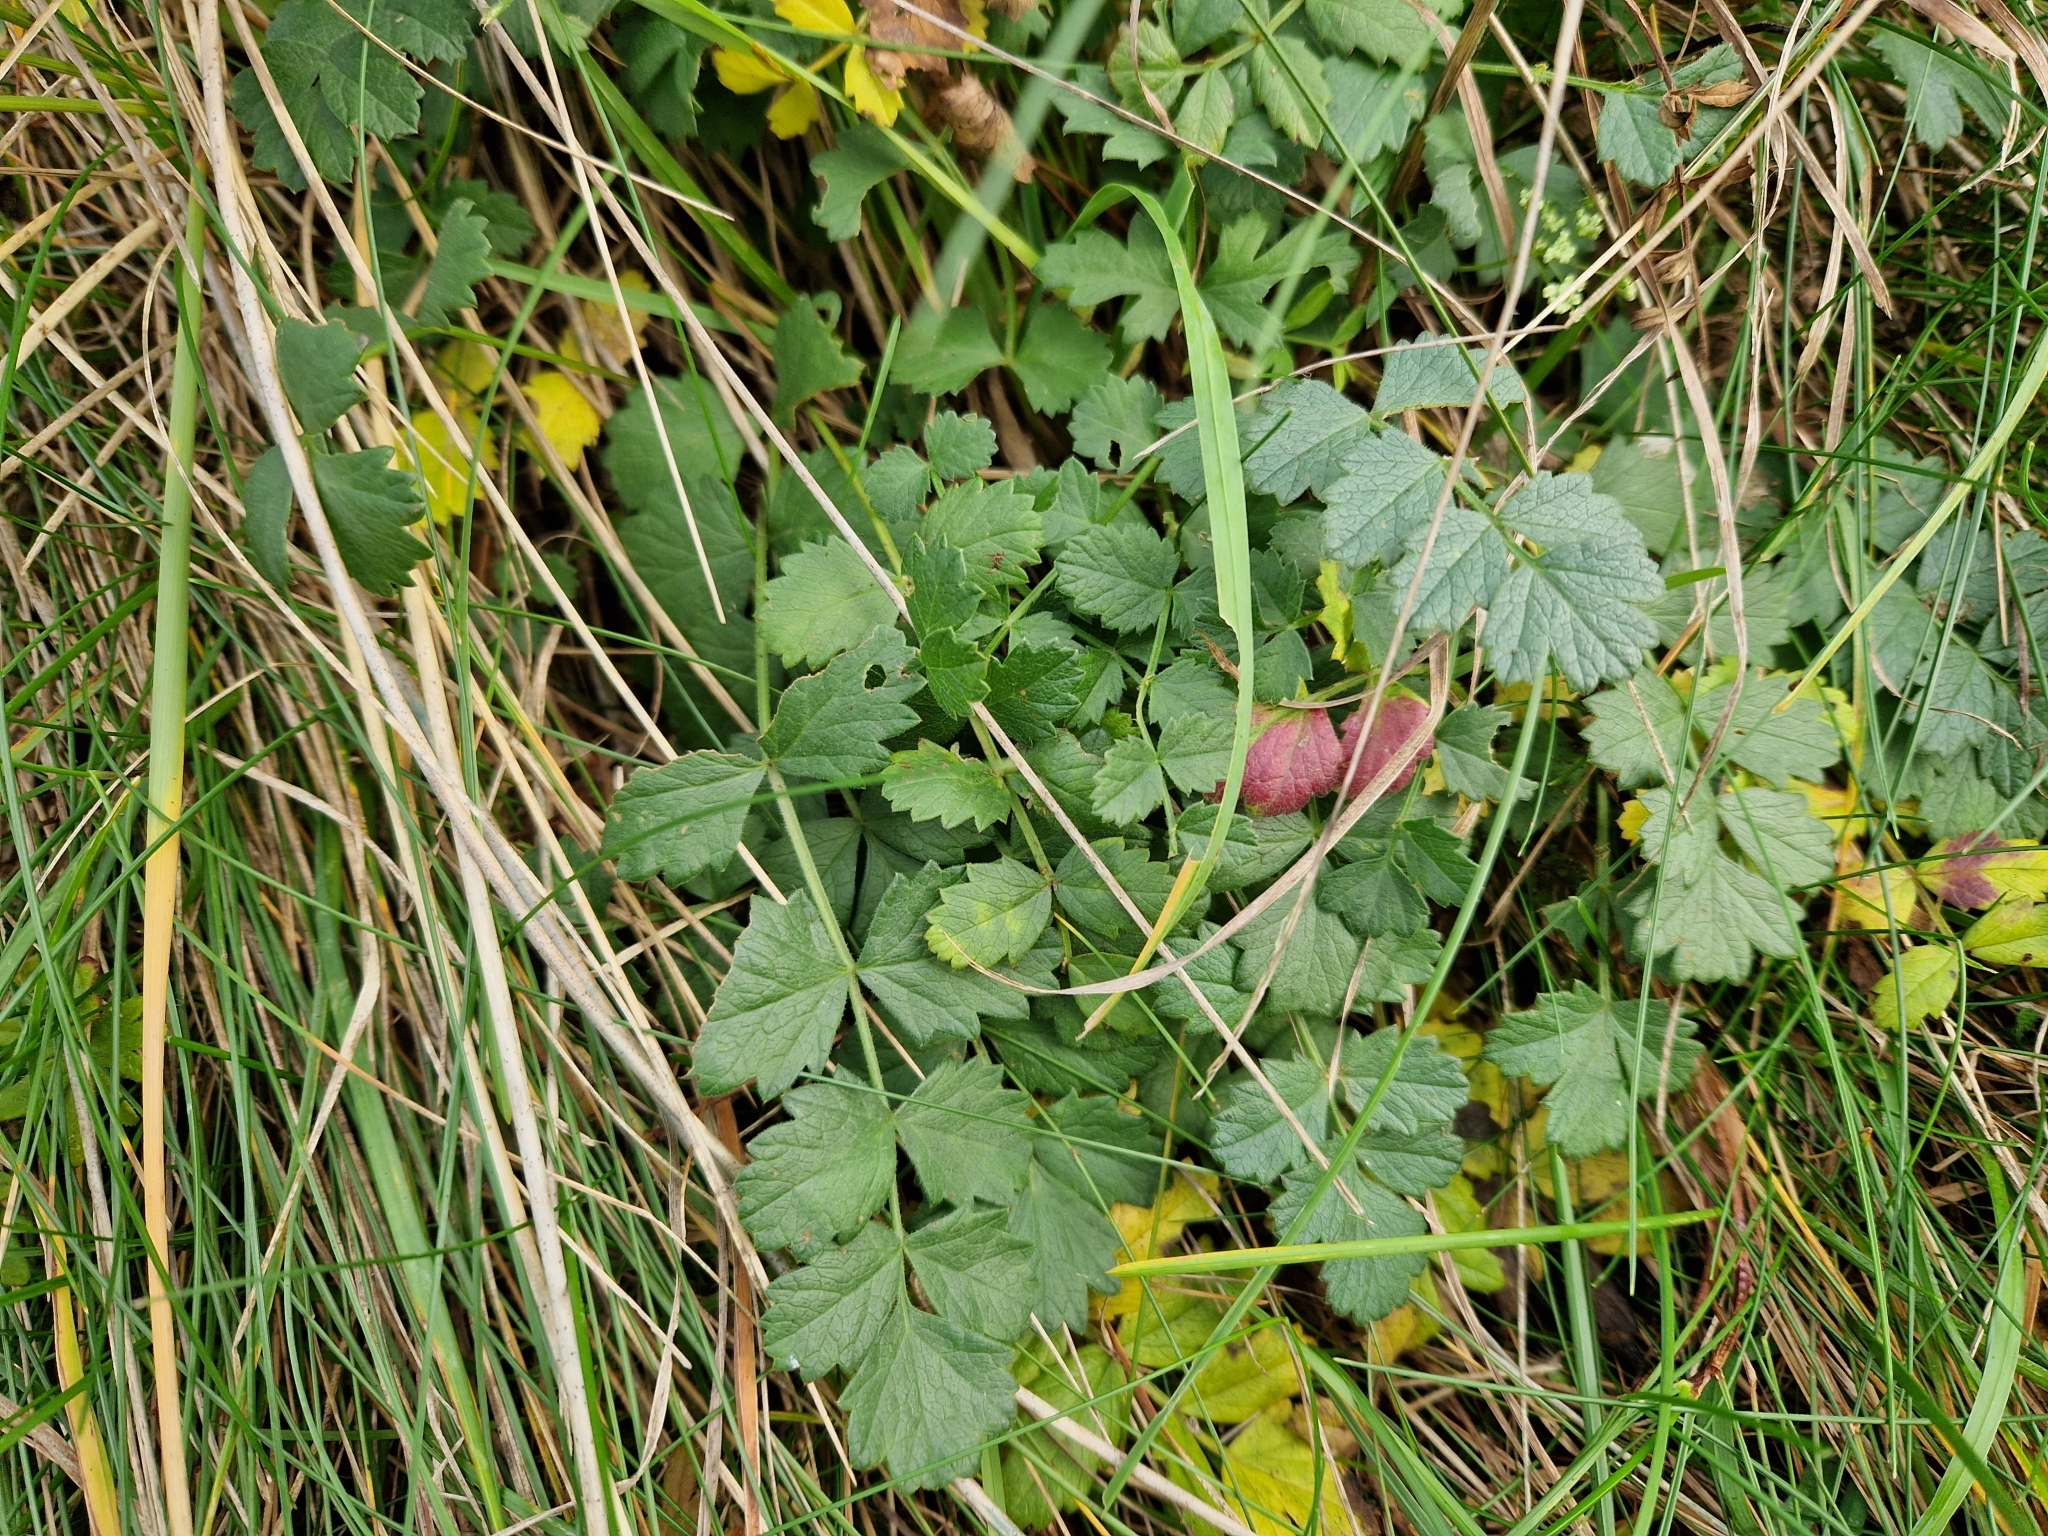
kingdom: Plantae
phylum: Tracheophyta
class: Magnoliopsida
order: Apiales
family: Apiaceae
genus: Pimpinella
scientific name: Pimpinella saxifraga
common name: Burnet-saxifrage
